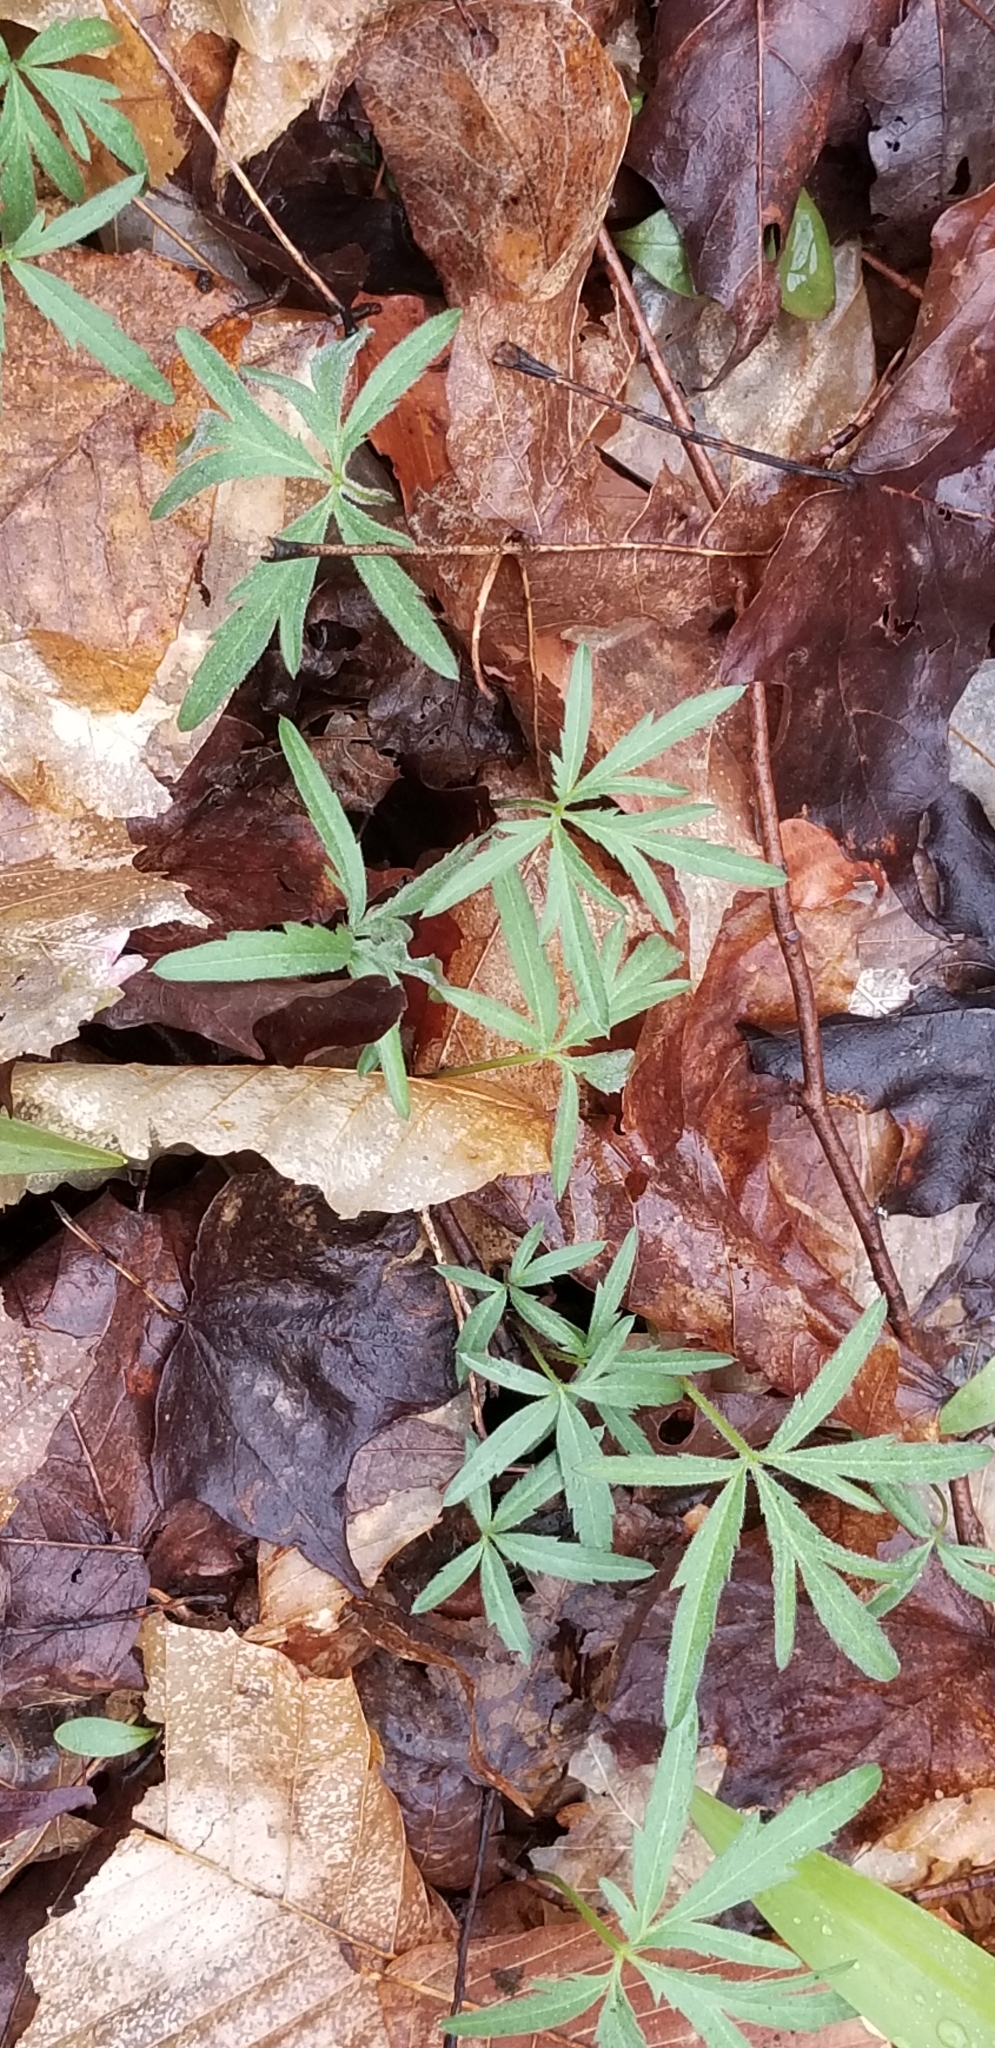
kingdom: Plantae
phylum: Tracheophyta
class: Magnoliopsida
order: Brassicales
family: Brassicaceae
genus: Cardamine
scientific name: Cardamine concatenata
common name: Cut-leaf toothcup
